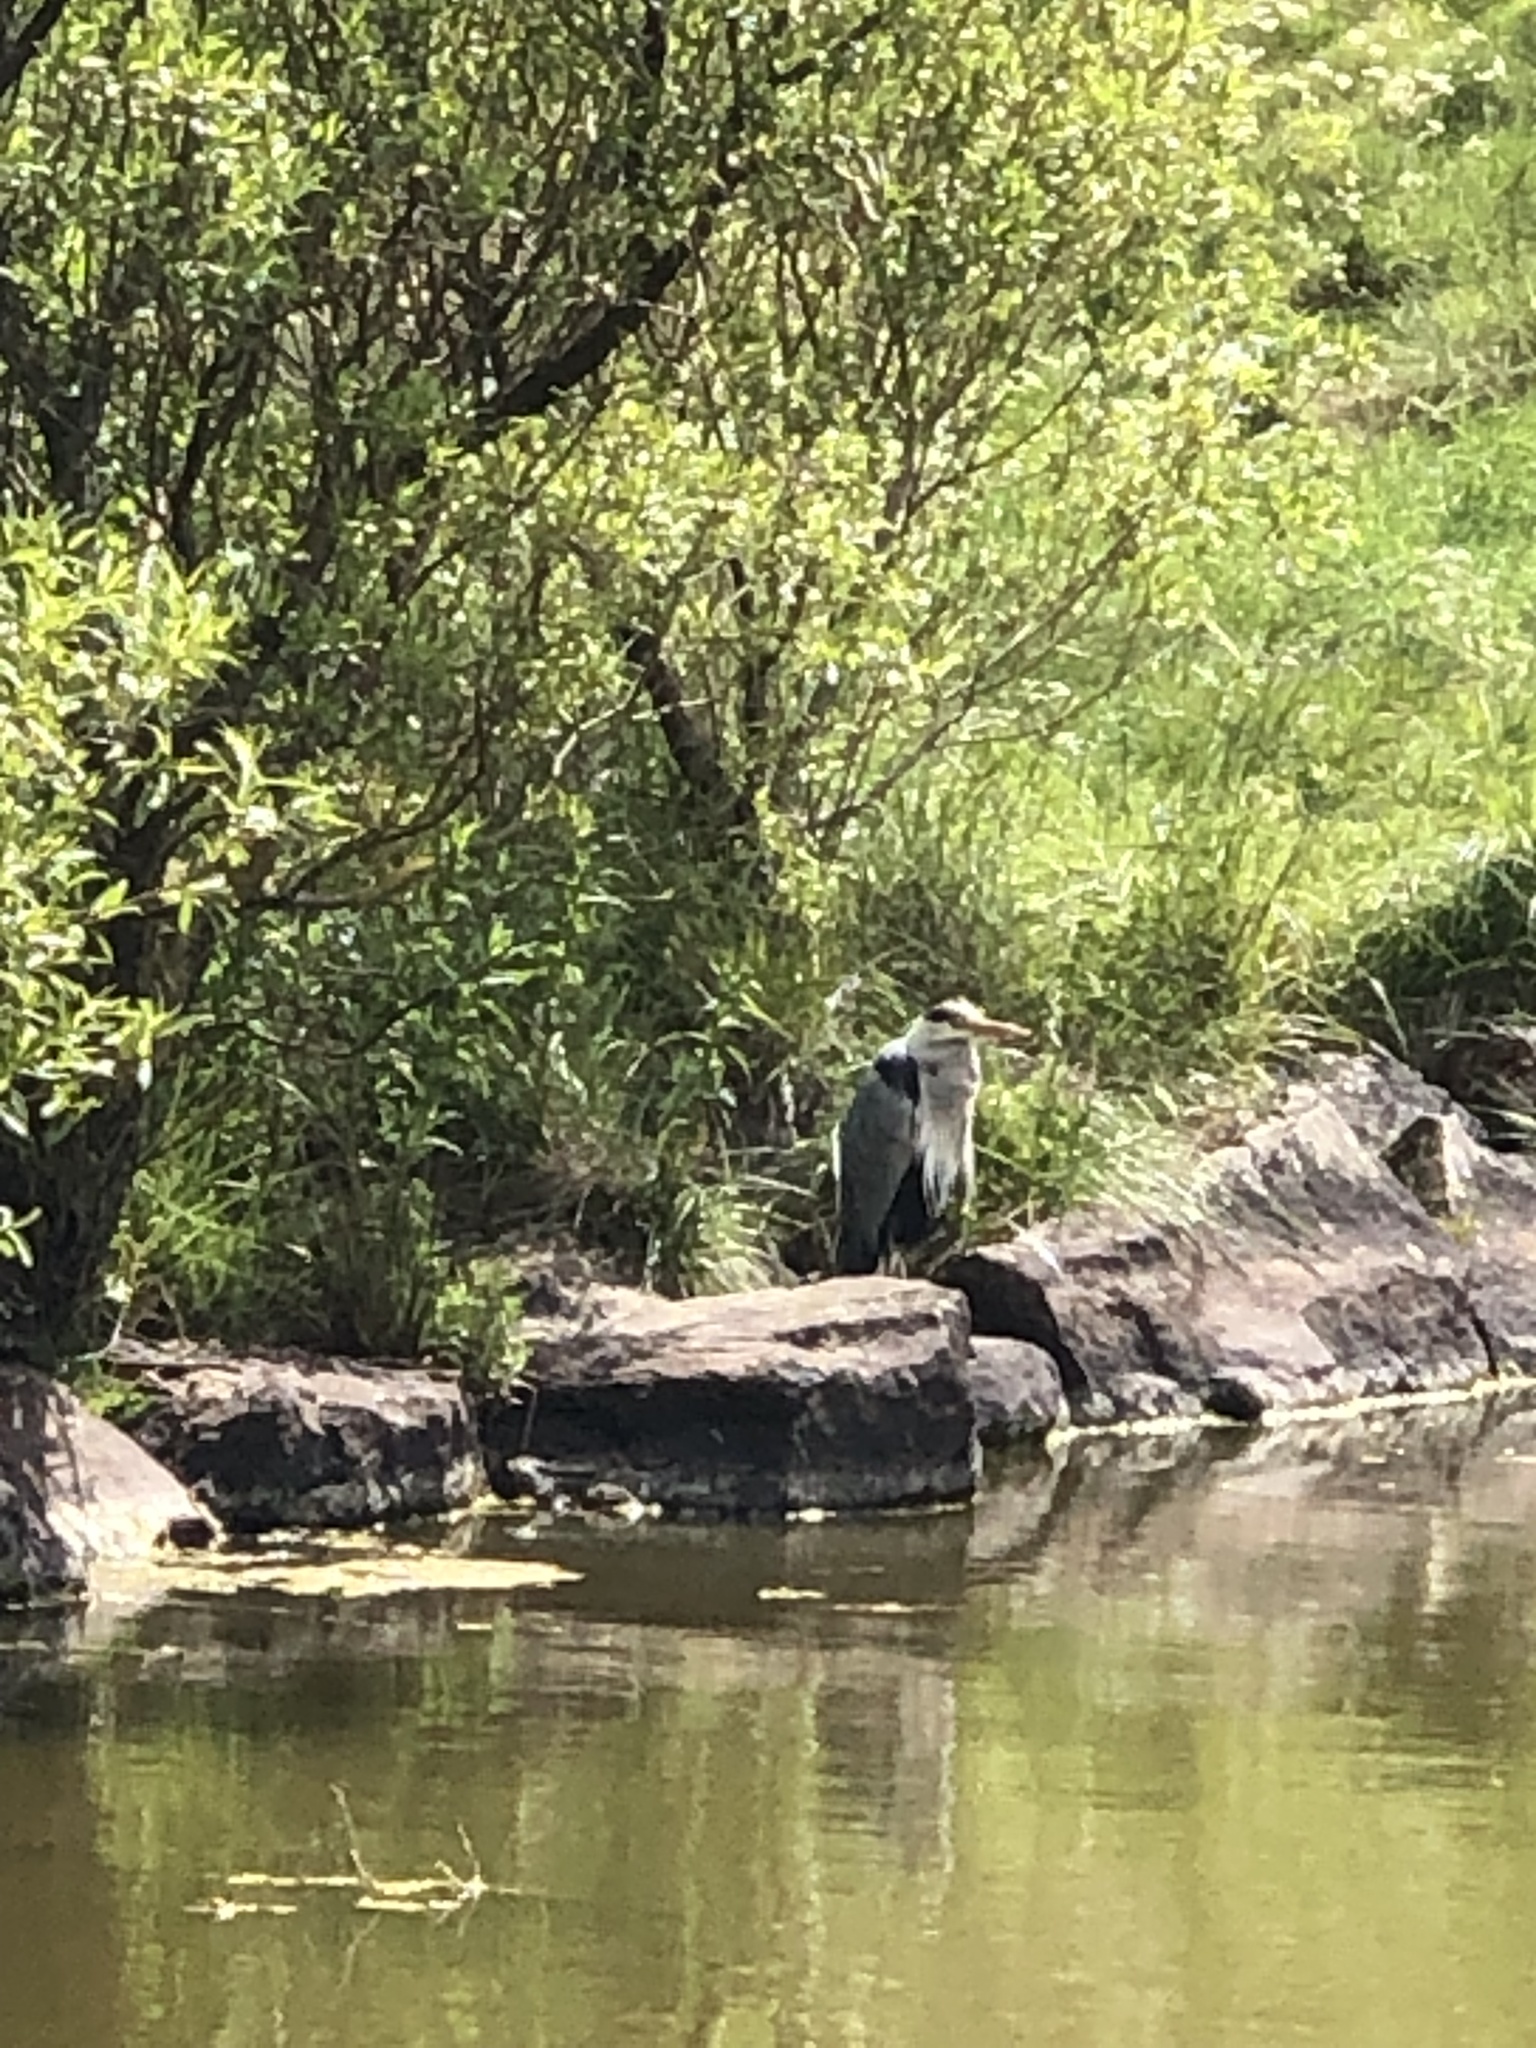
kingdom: Animalia
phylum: Chordata
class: Aves
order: Pelecaniformes
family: Ardeidae
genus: Ardea
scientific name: Ardea cinerea
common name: Grey heron
